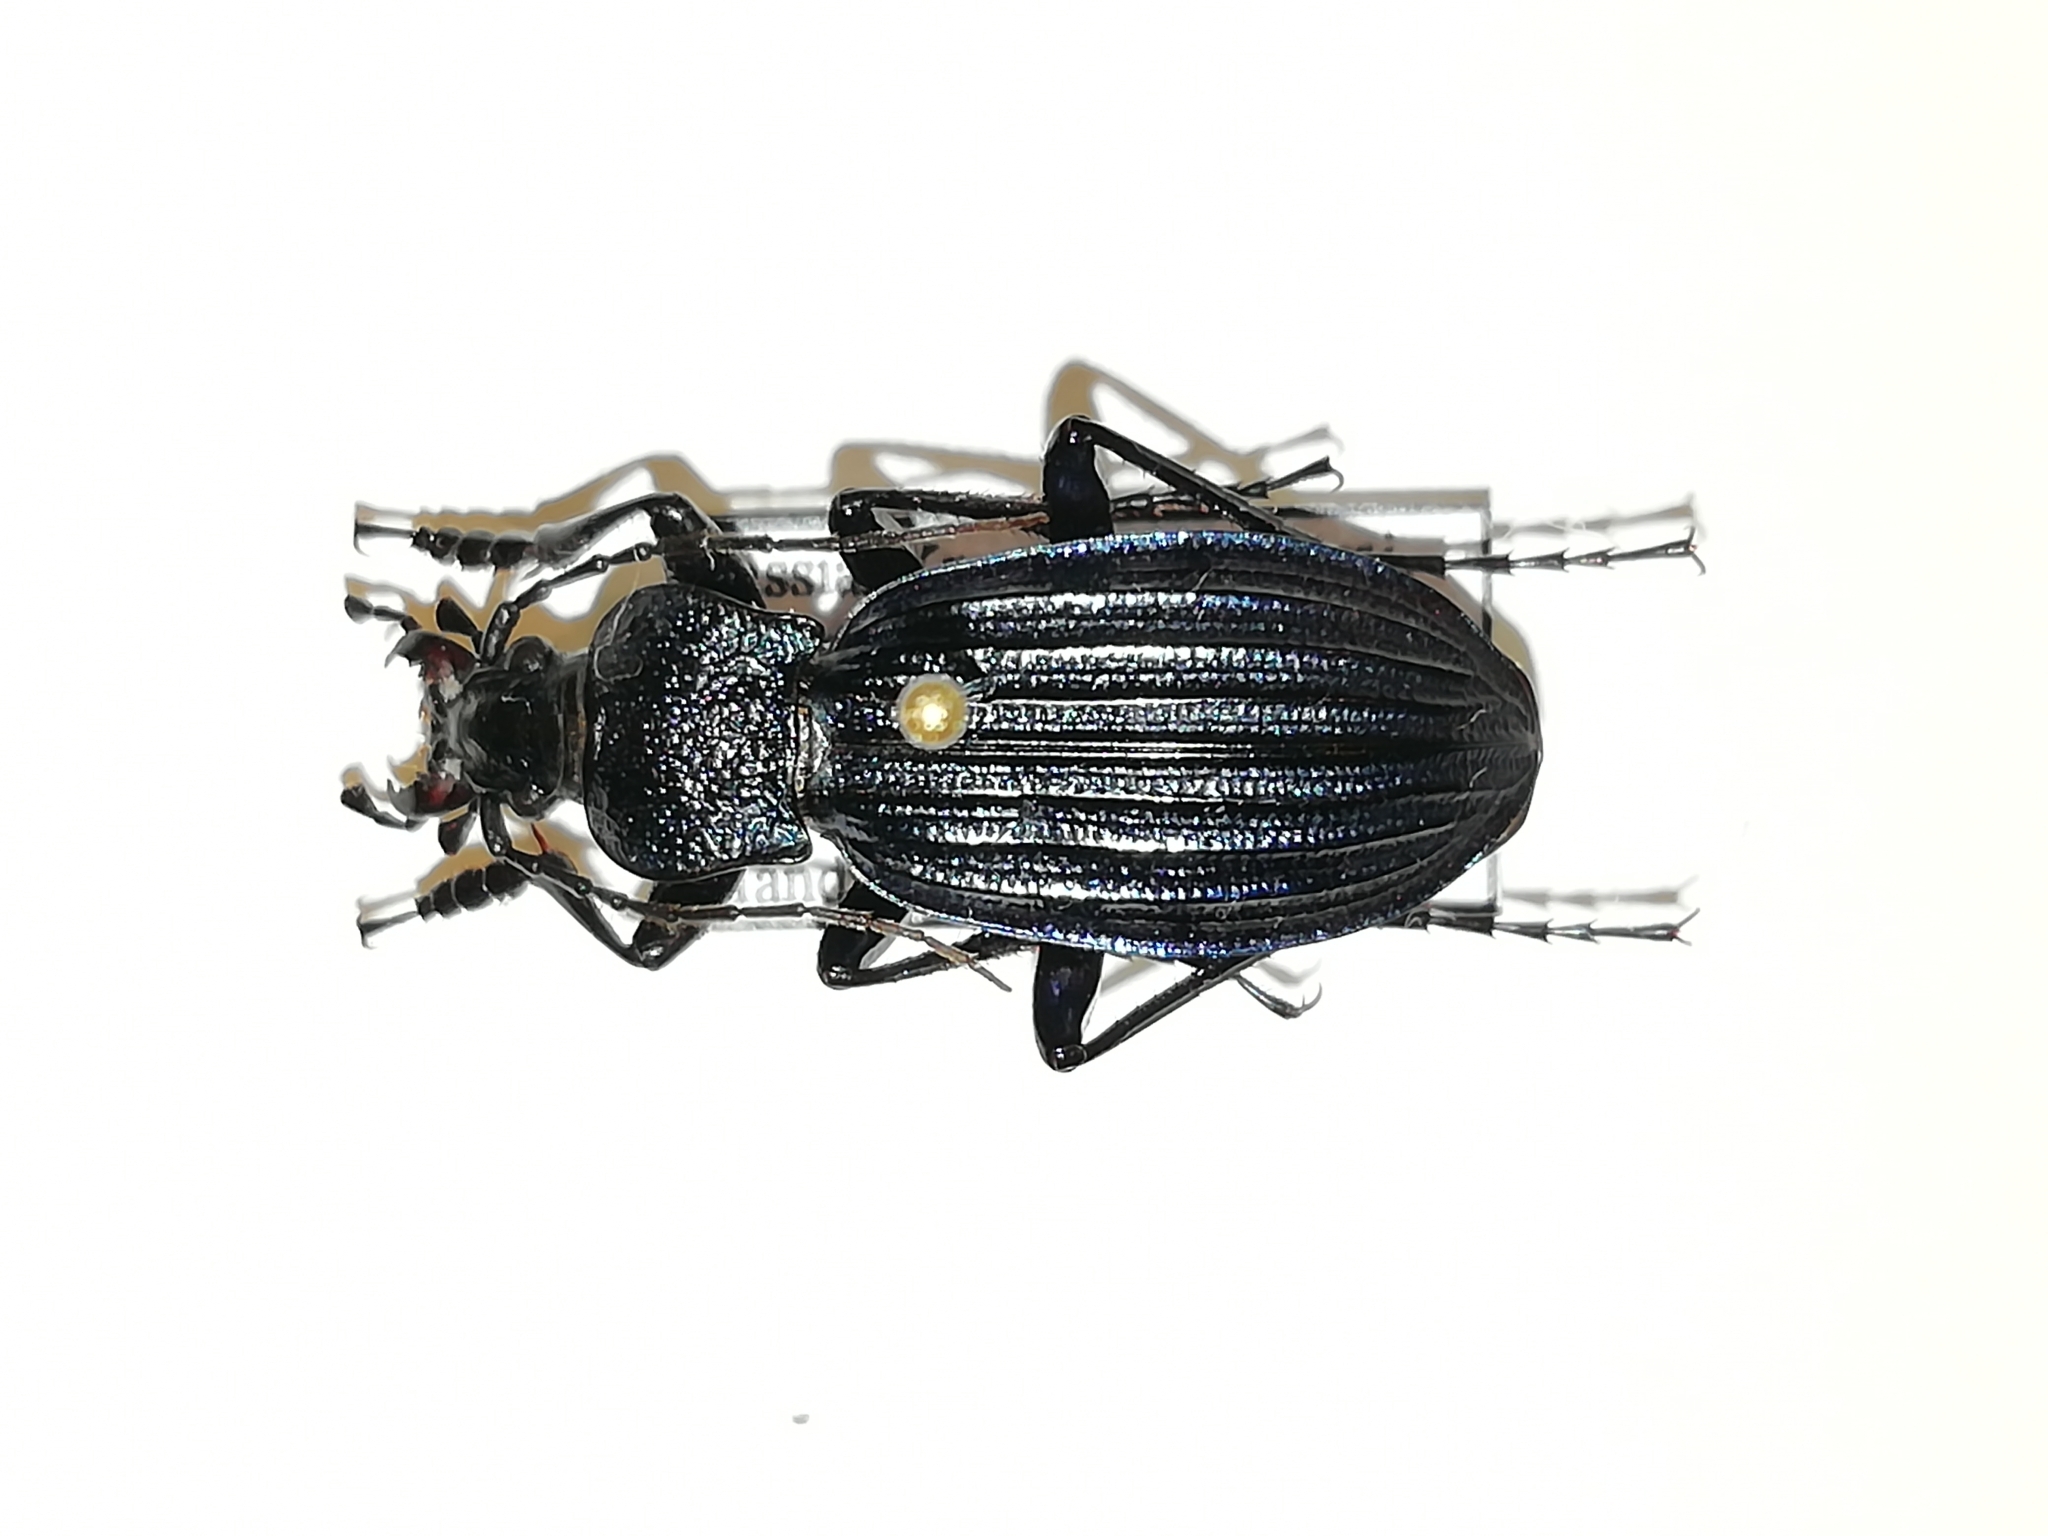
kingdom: Animalia
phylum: Arthropoda
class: Insecta
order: Coleoptera
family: Carabidae
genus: Carabus
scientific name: Carabus exaratus
